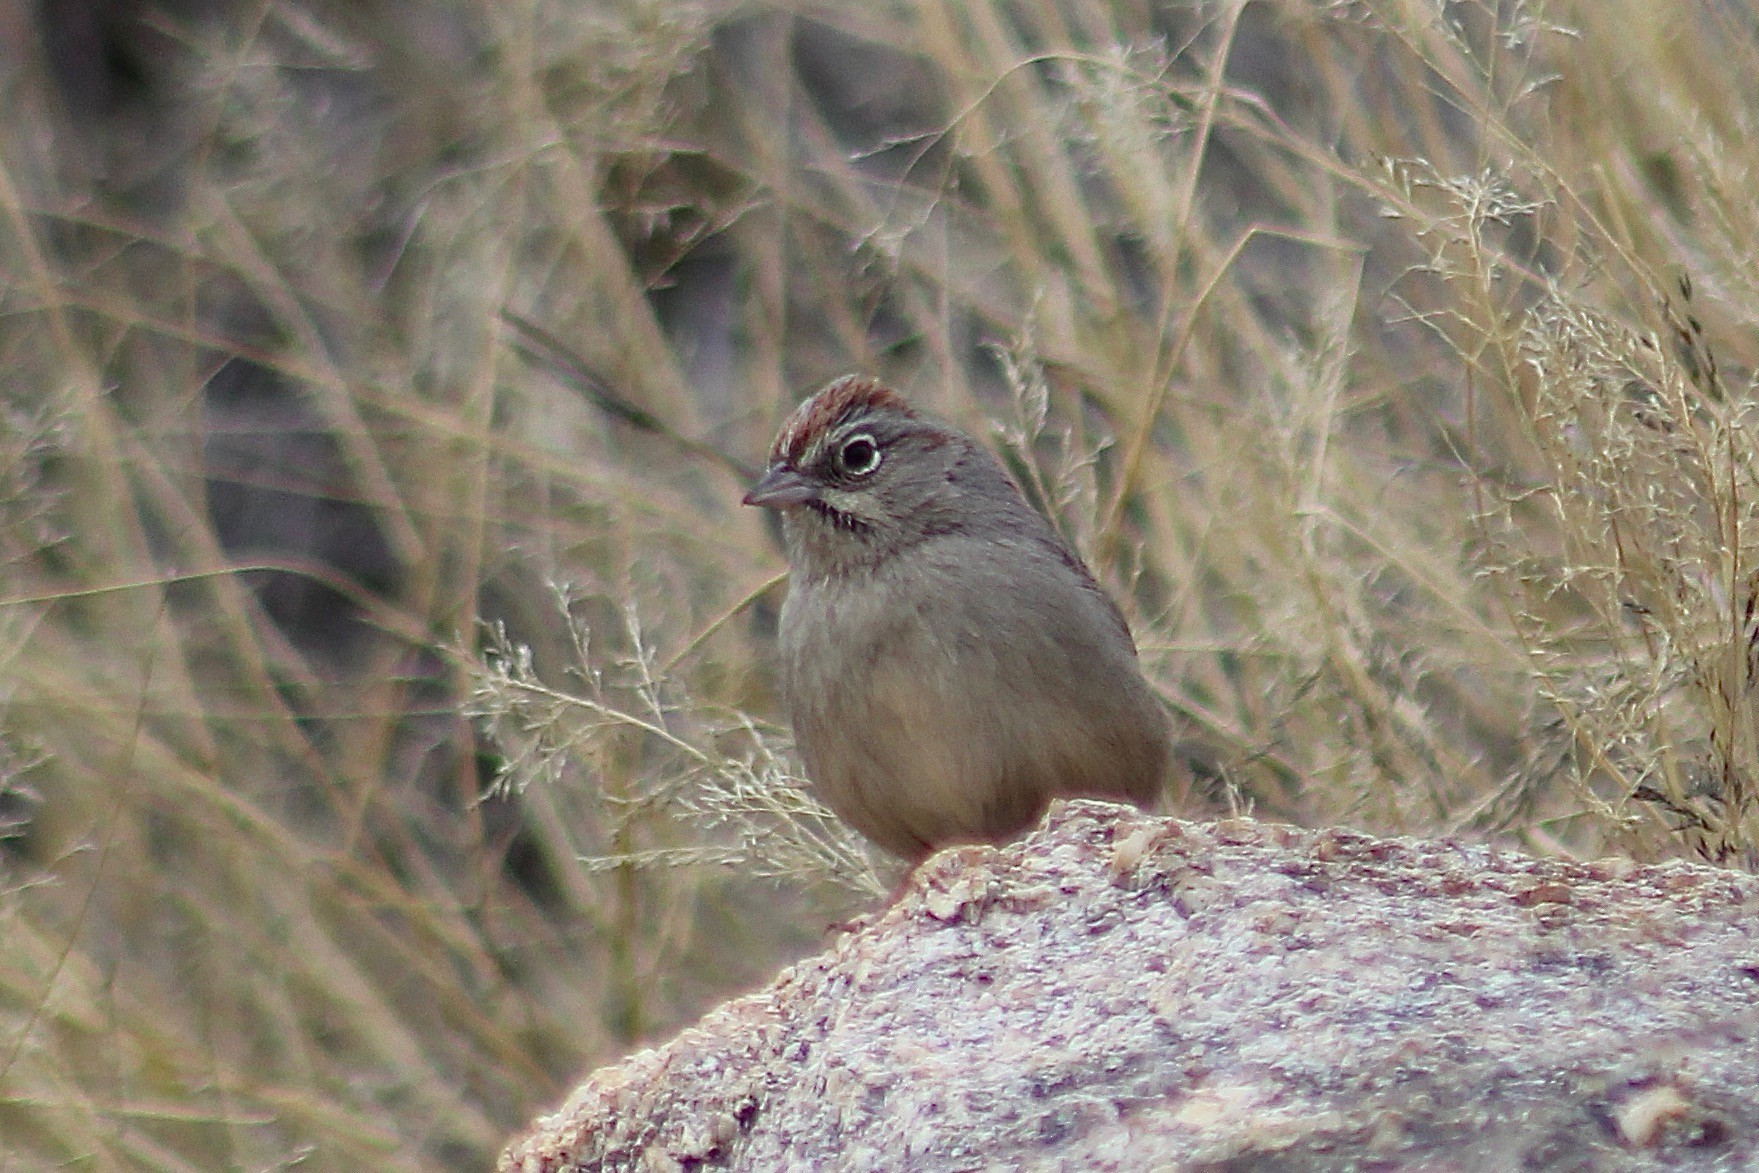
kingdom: Animalia
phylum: Chordata
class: Aves
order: Passeriformes
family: Passerellidae
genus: Aimophila
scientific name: Aimophila ruficeps
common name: Rufous-crowned sparrow
